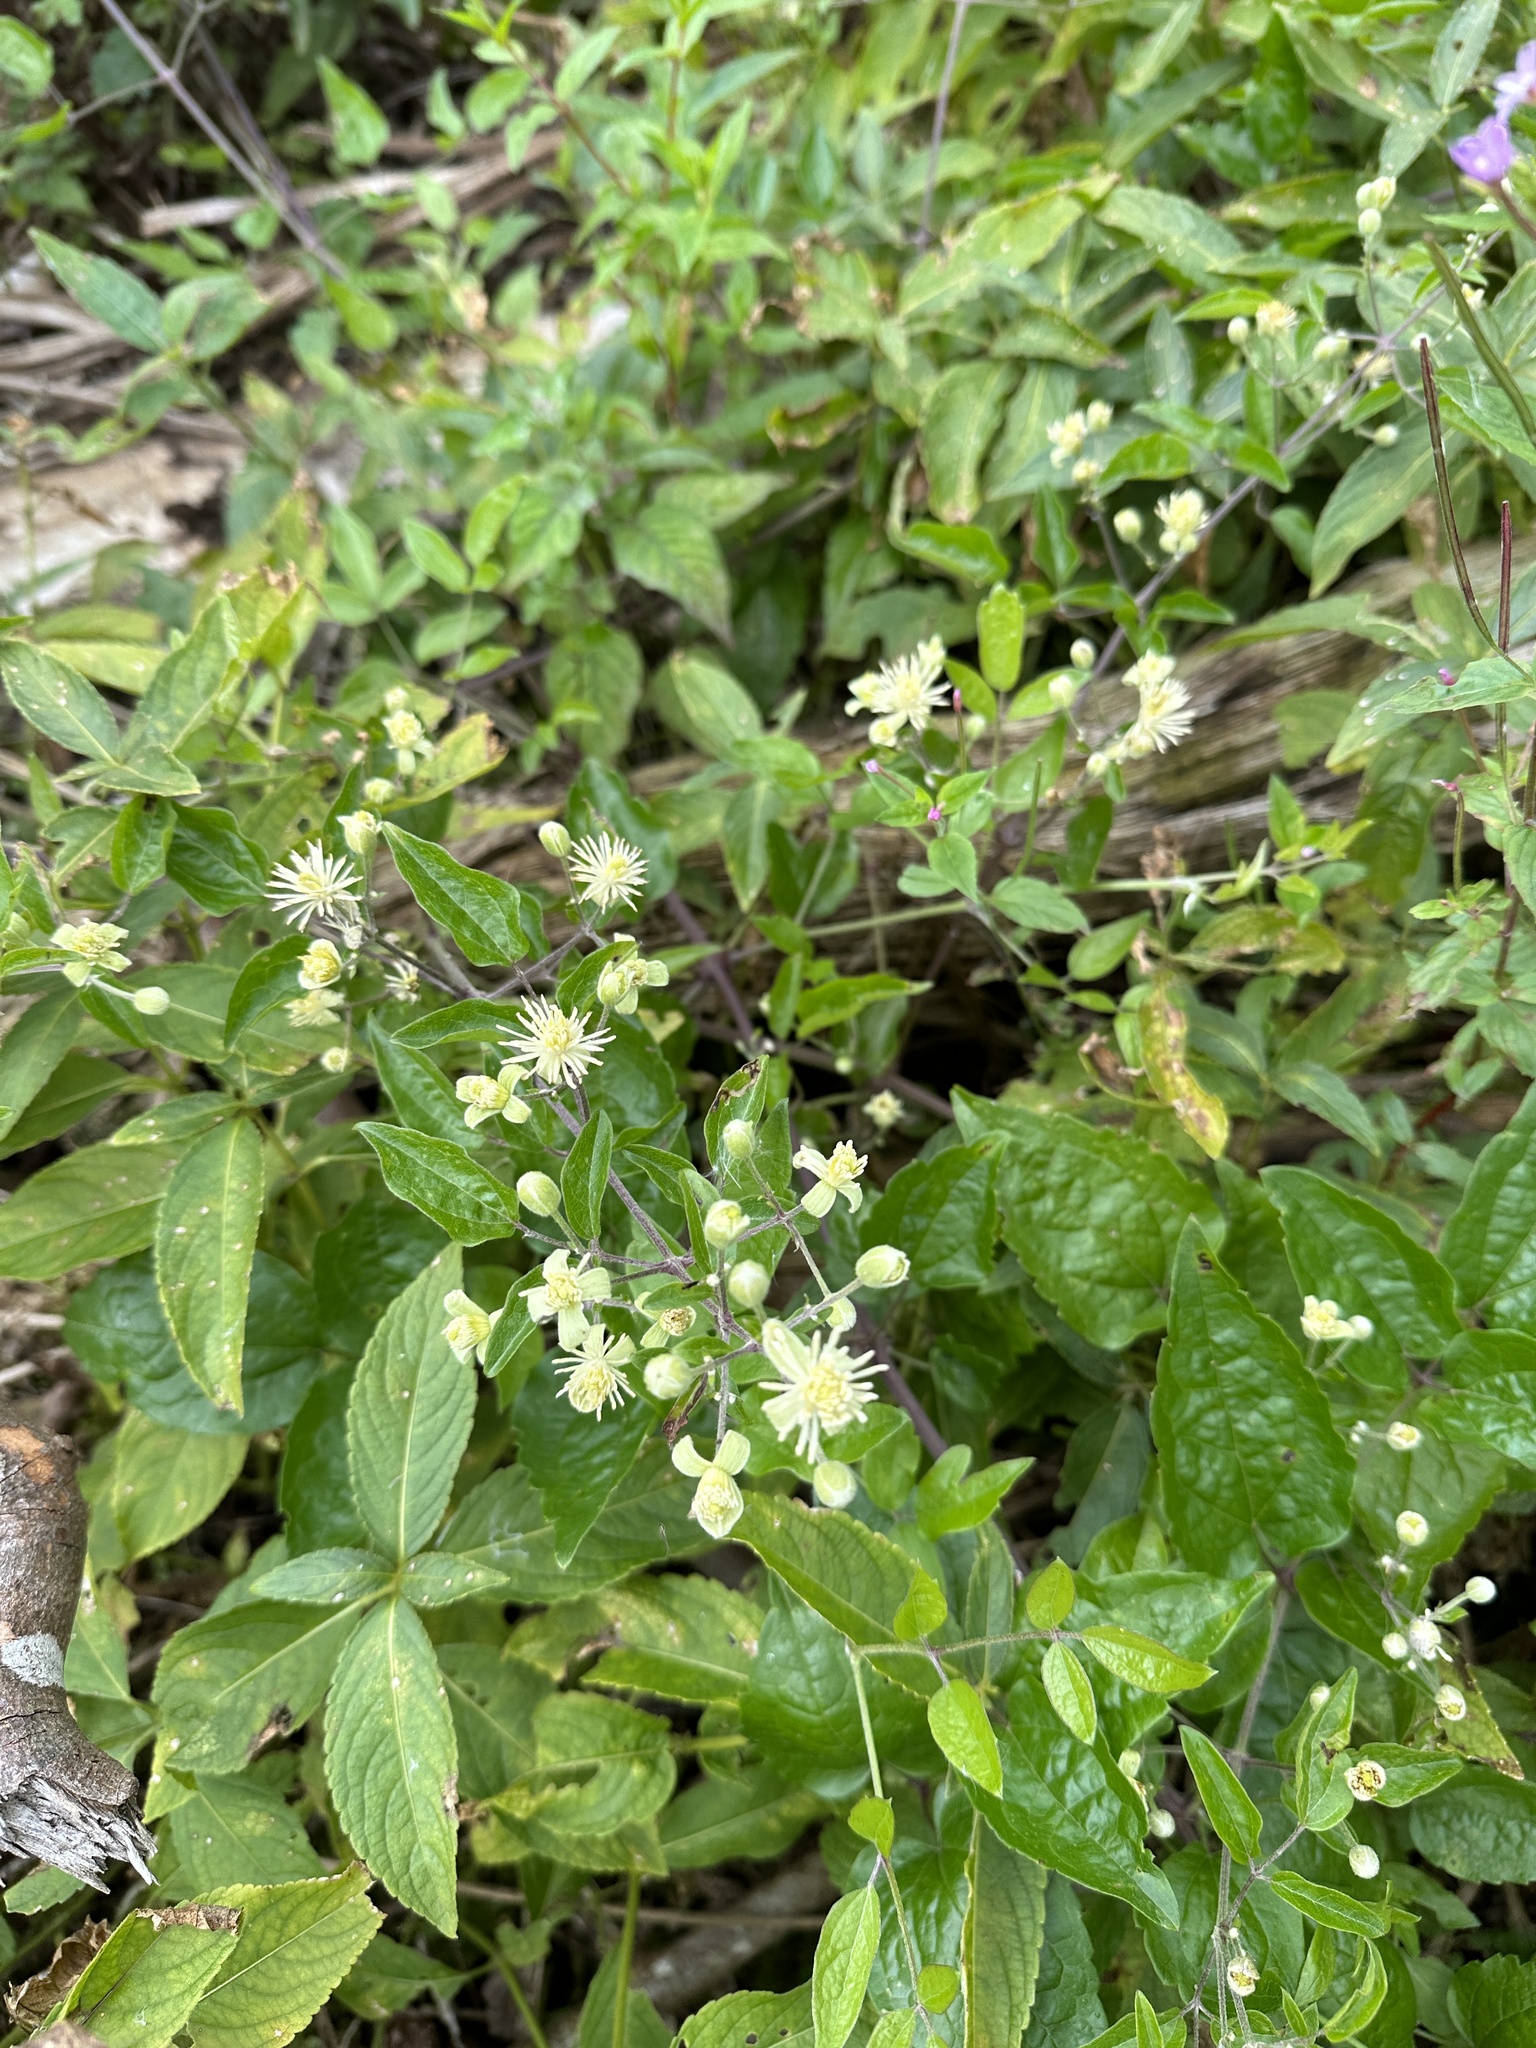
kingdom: Plantae
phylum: Tracheophyta
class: Magnoliopsida
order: Ranunculales
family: Ranunculaceae
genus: Clematis
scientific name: Clematis vitalba
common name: Evergreen clematis
